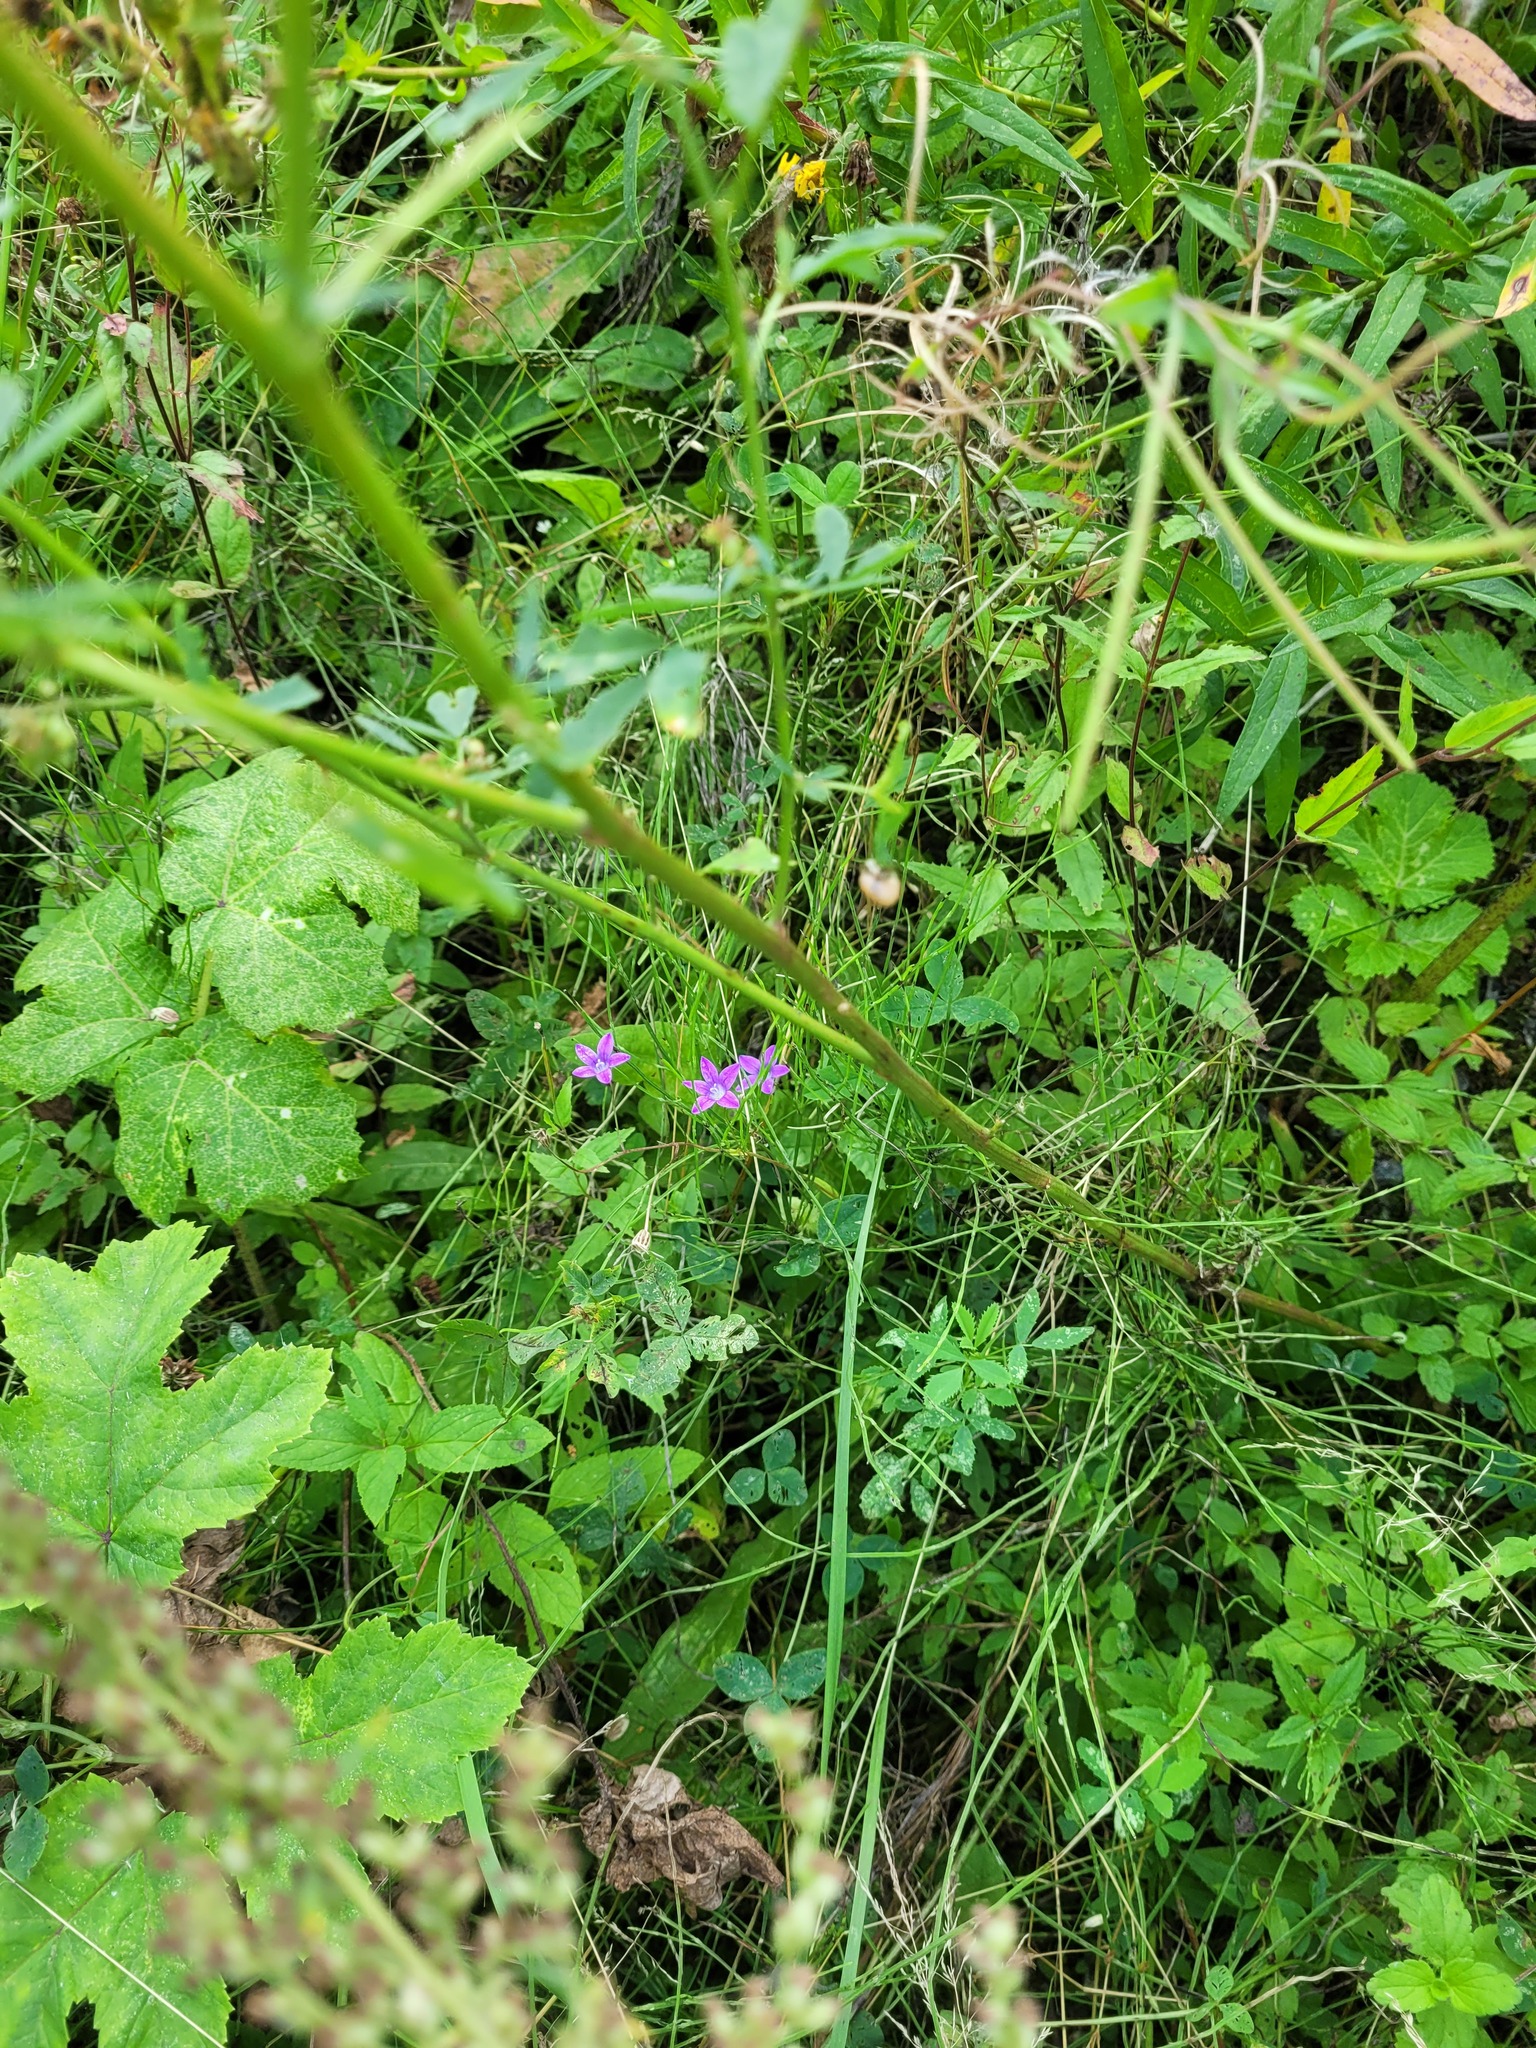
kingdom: Plantae
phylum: Tracheophyta
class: Magnoliopsida
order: Asterales
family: Campanulaceae
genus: Campanula
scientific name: Campanula patula
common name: Spreading bellflower
